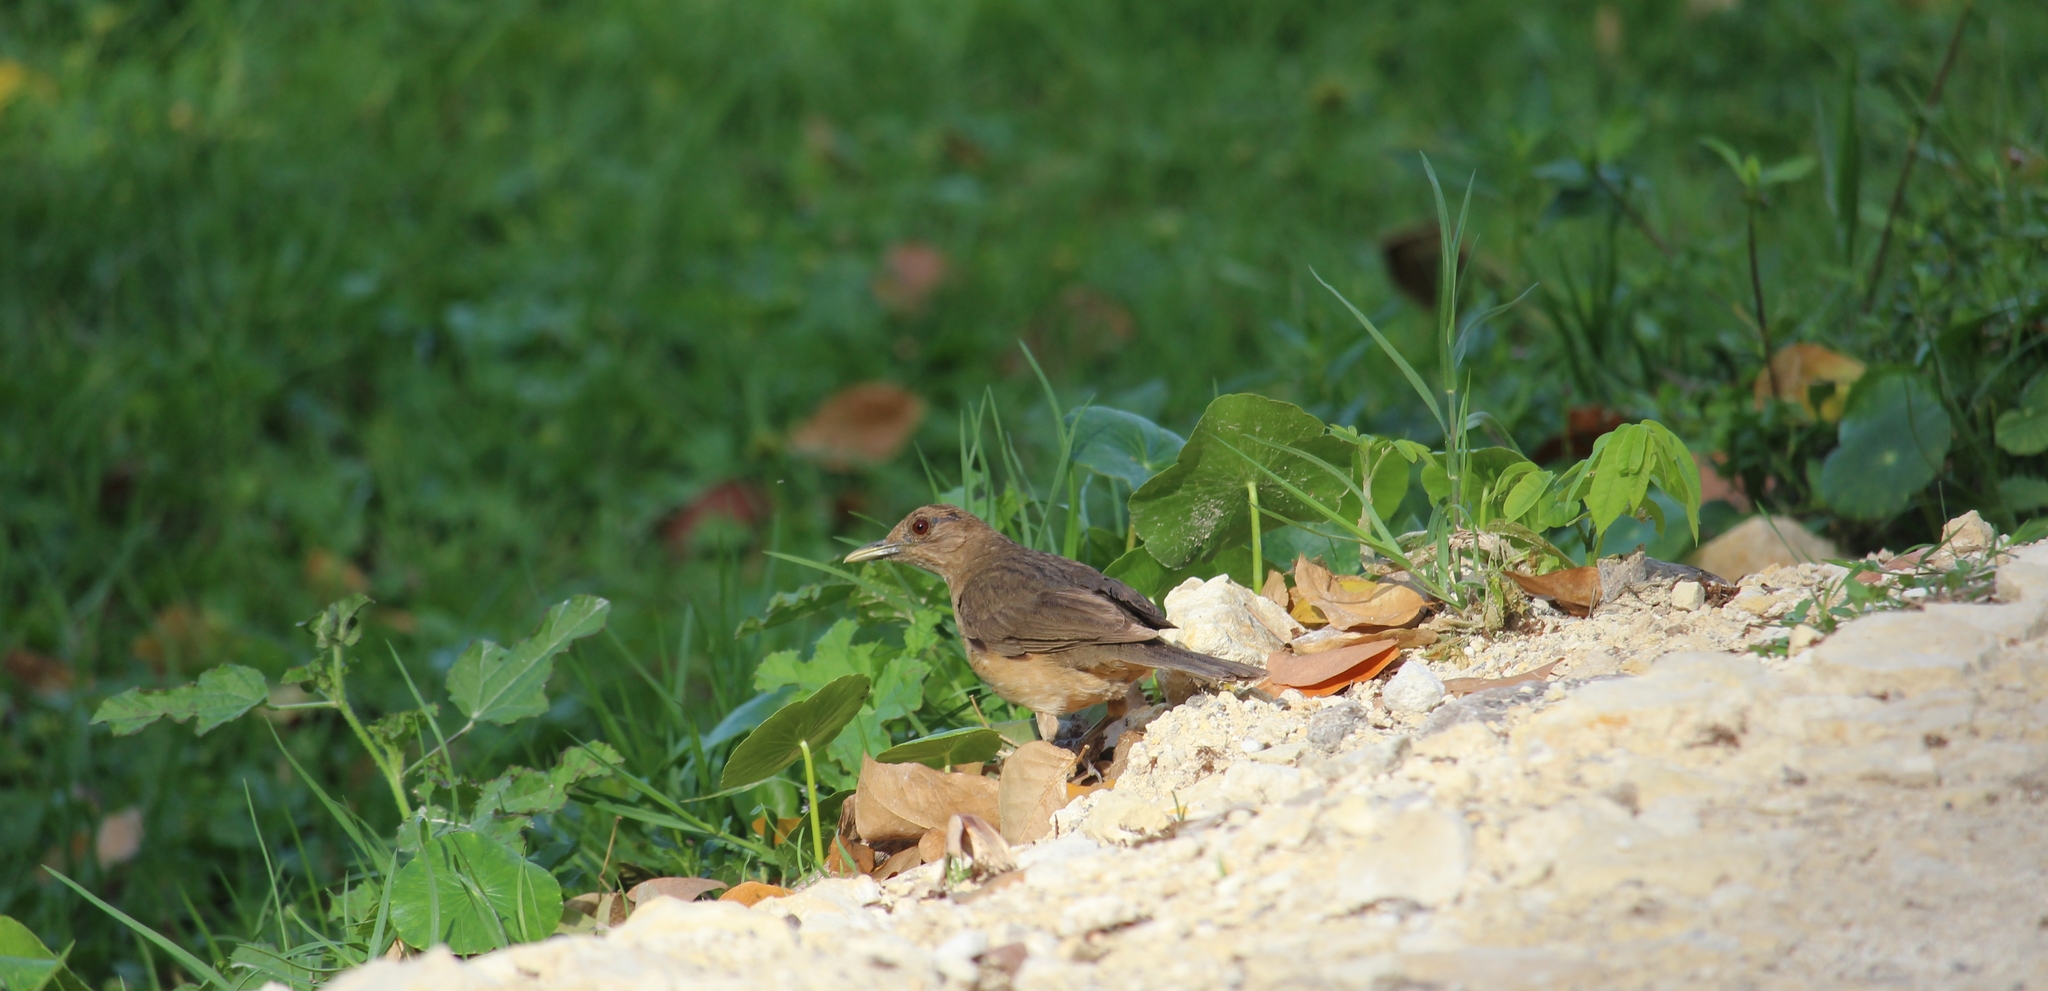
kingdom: Animalia
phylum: Chordata
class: Aves
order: Passeriformes
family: Turdidae
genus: Turdus
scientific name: Turdus grayi
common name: Clay-colored thrush
